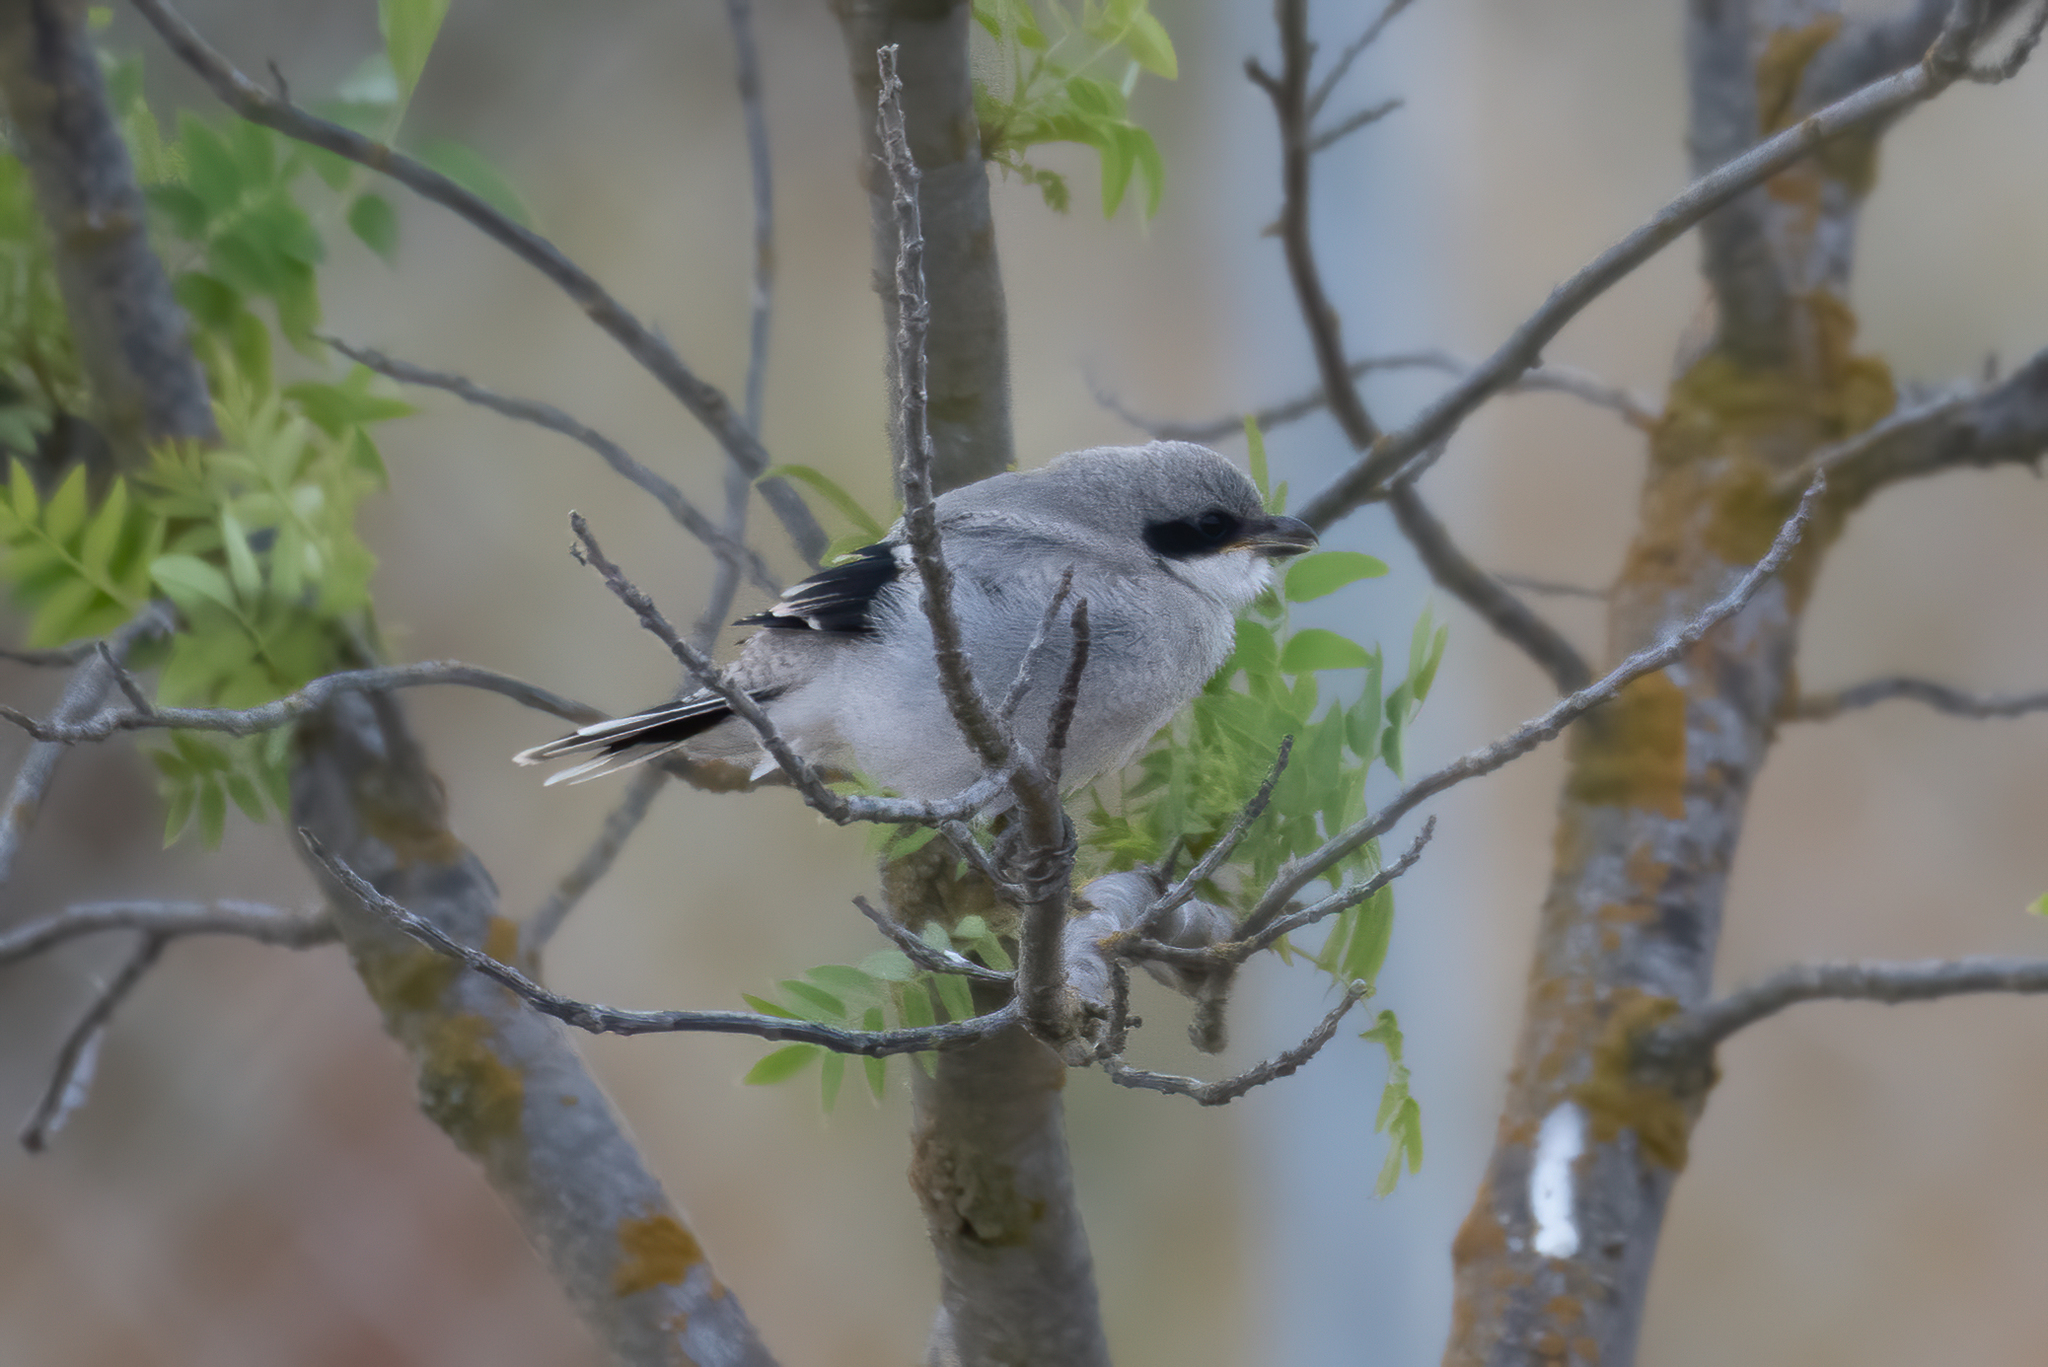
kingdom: Animalia
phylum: Chordata
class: Aves
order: Passeriformes
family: Laniidae
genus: Lanius
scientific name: Lanius ludovicianus
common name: Loggerhead shrike
